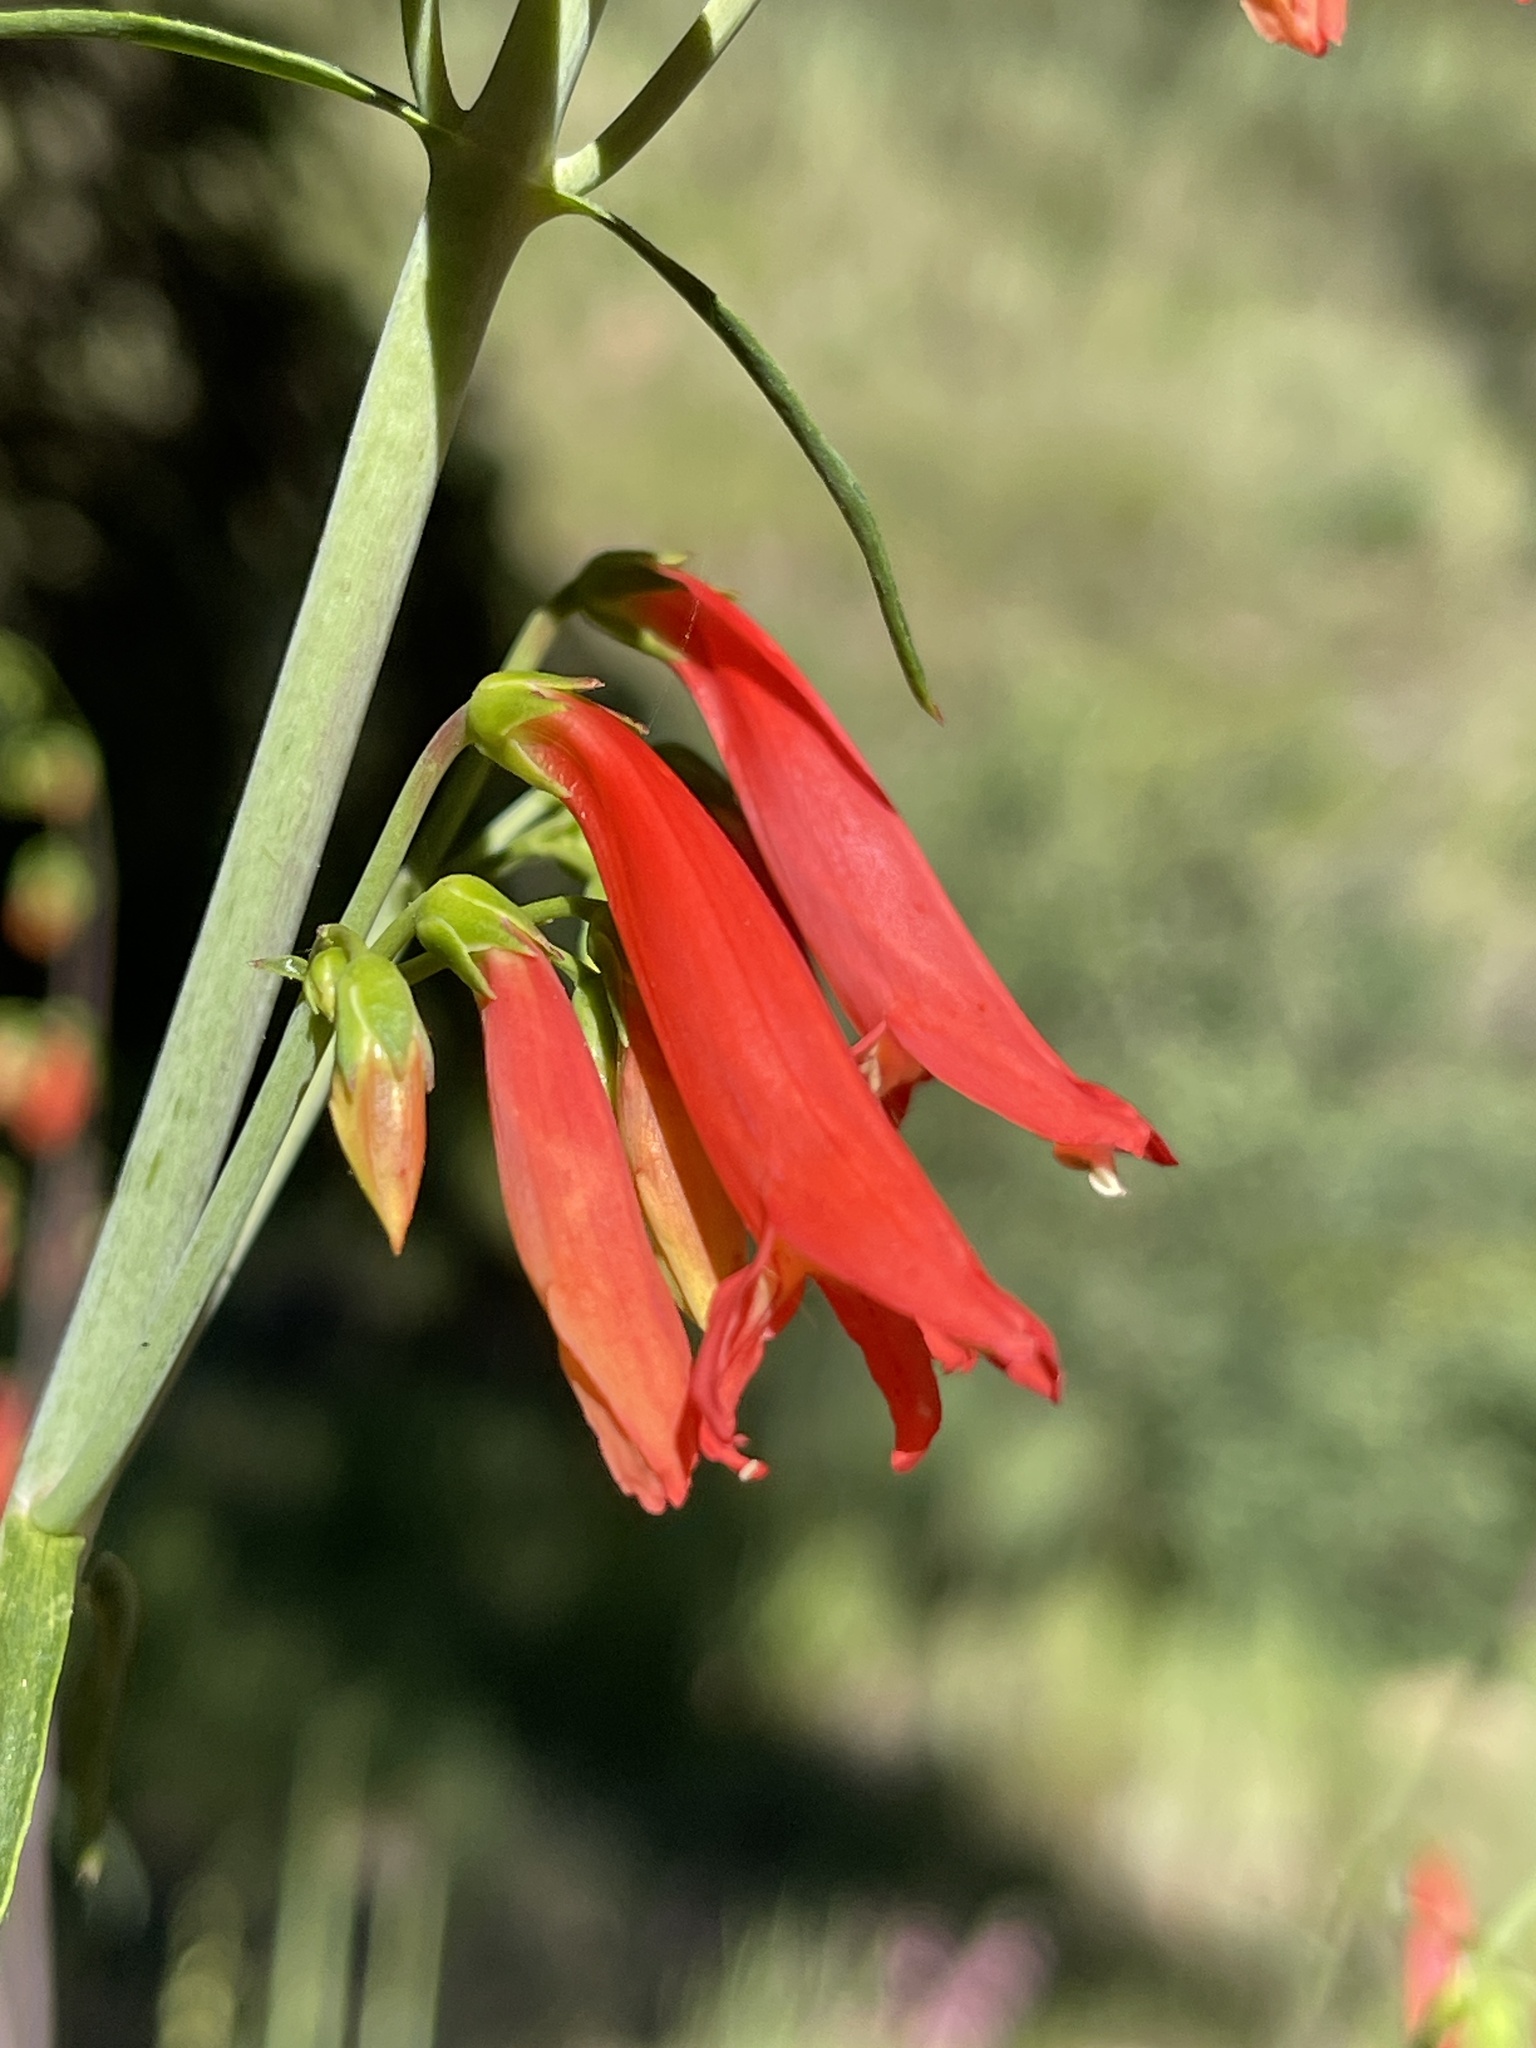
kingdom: Plantae
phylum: Tracheophyta
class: Magnoliopsida
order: Lamiales
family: Plantaginaceae
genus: Penstemon
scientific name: Penstemon barbatus
